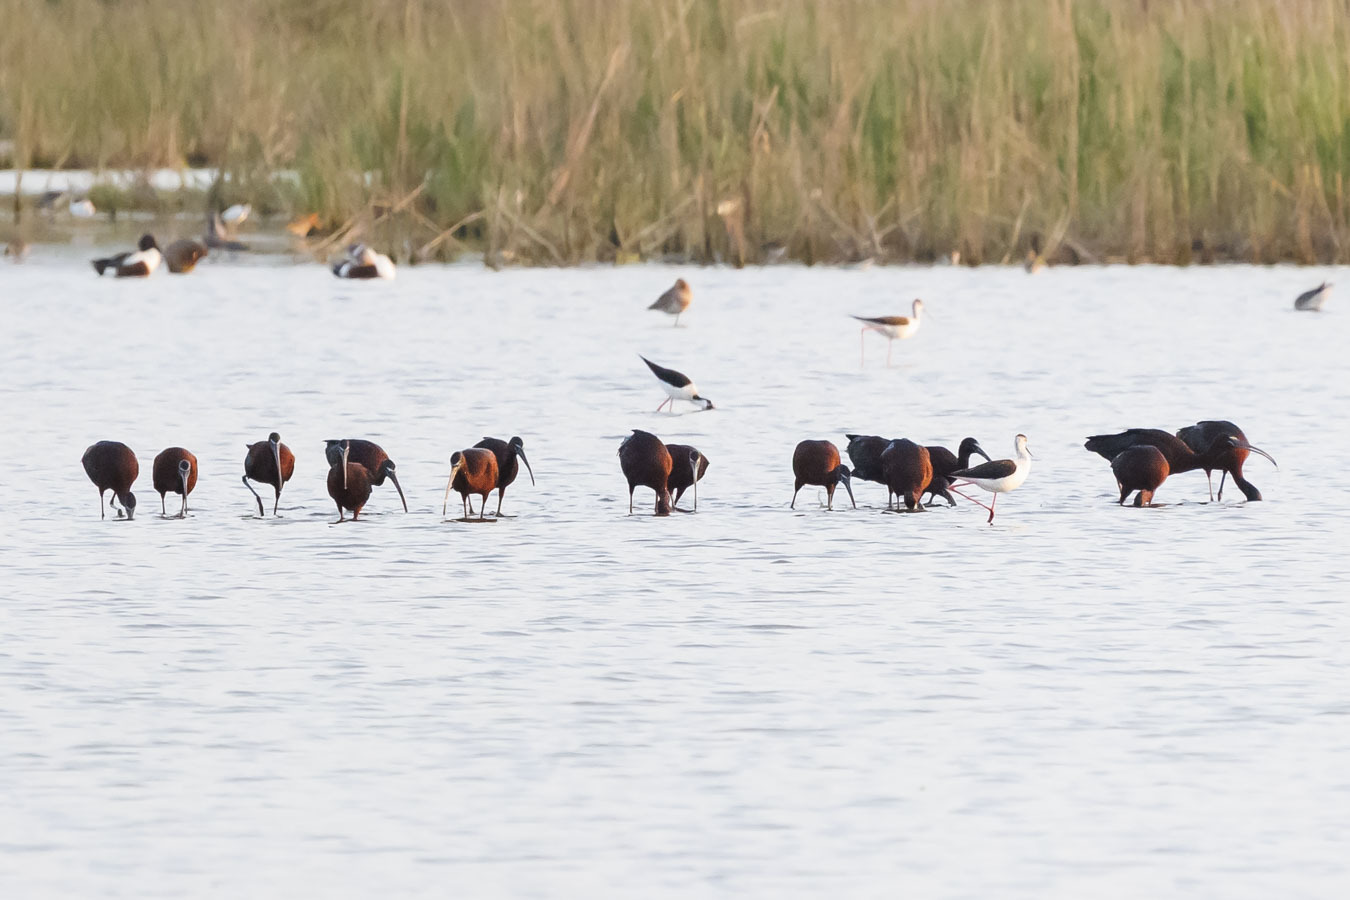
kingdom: Animalia
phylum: Chordata
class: Aves
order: Pelecaniformes
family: Threskiornithidae
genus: Plegadis
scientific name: Plegadis falcinellus
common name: Glossy ibis
